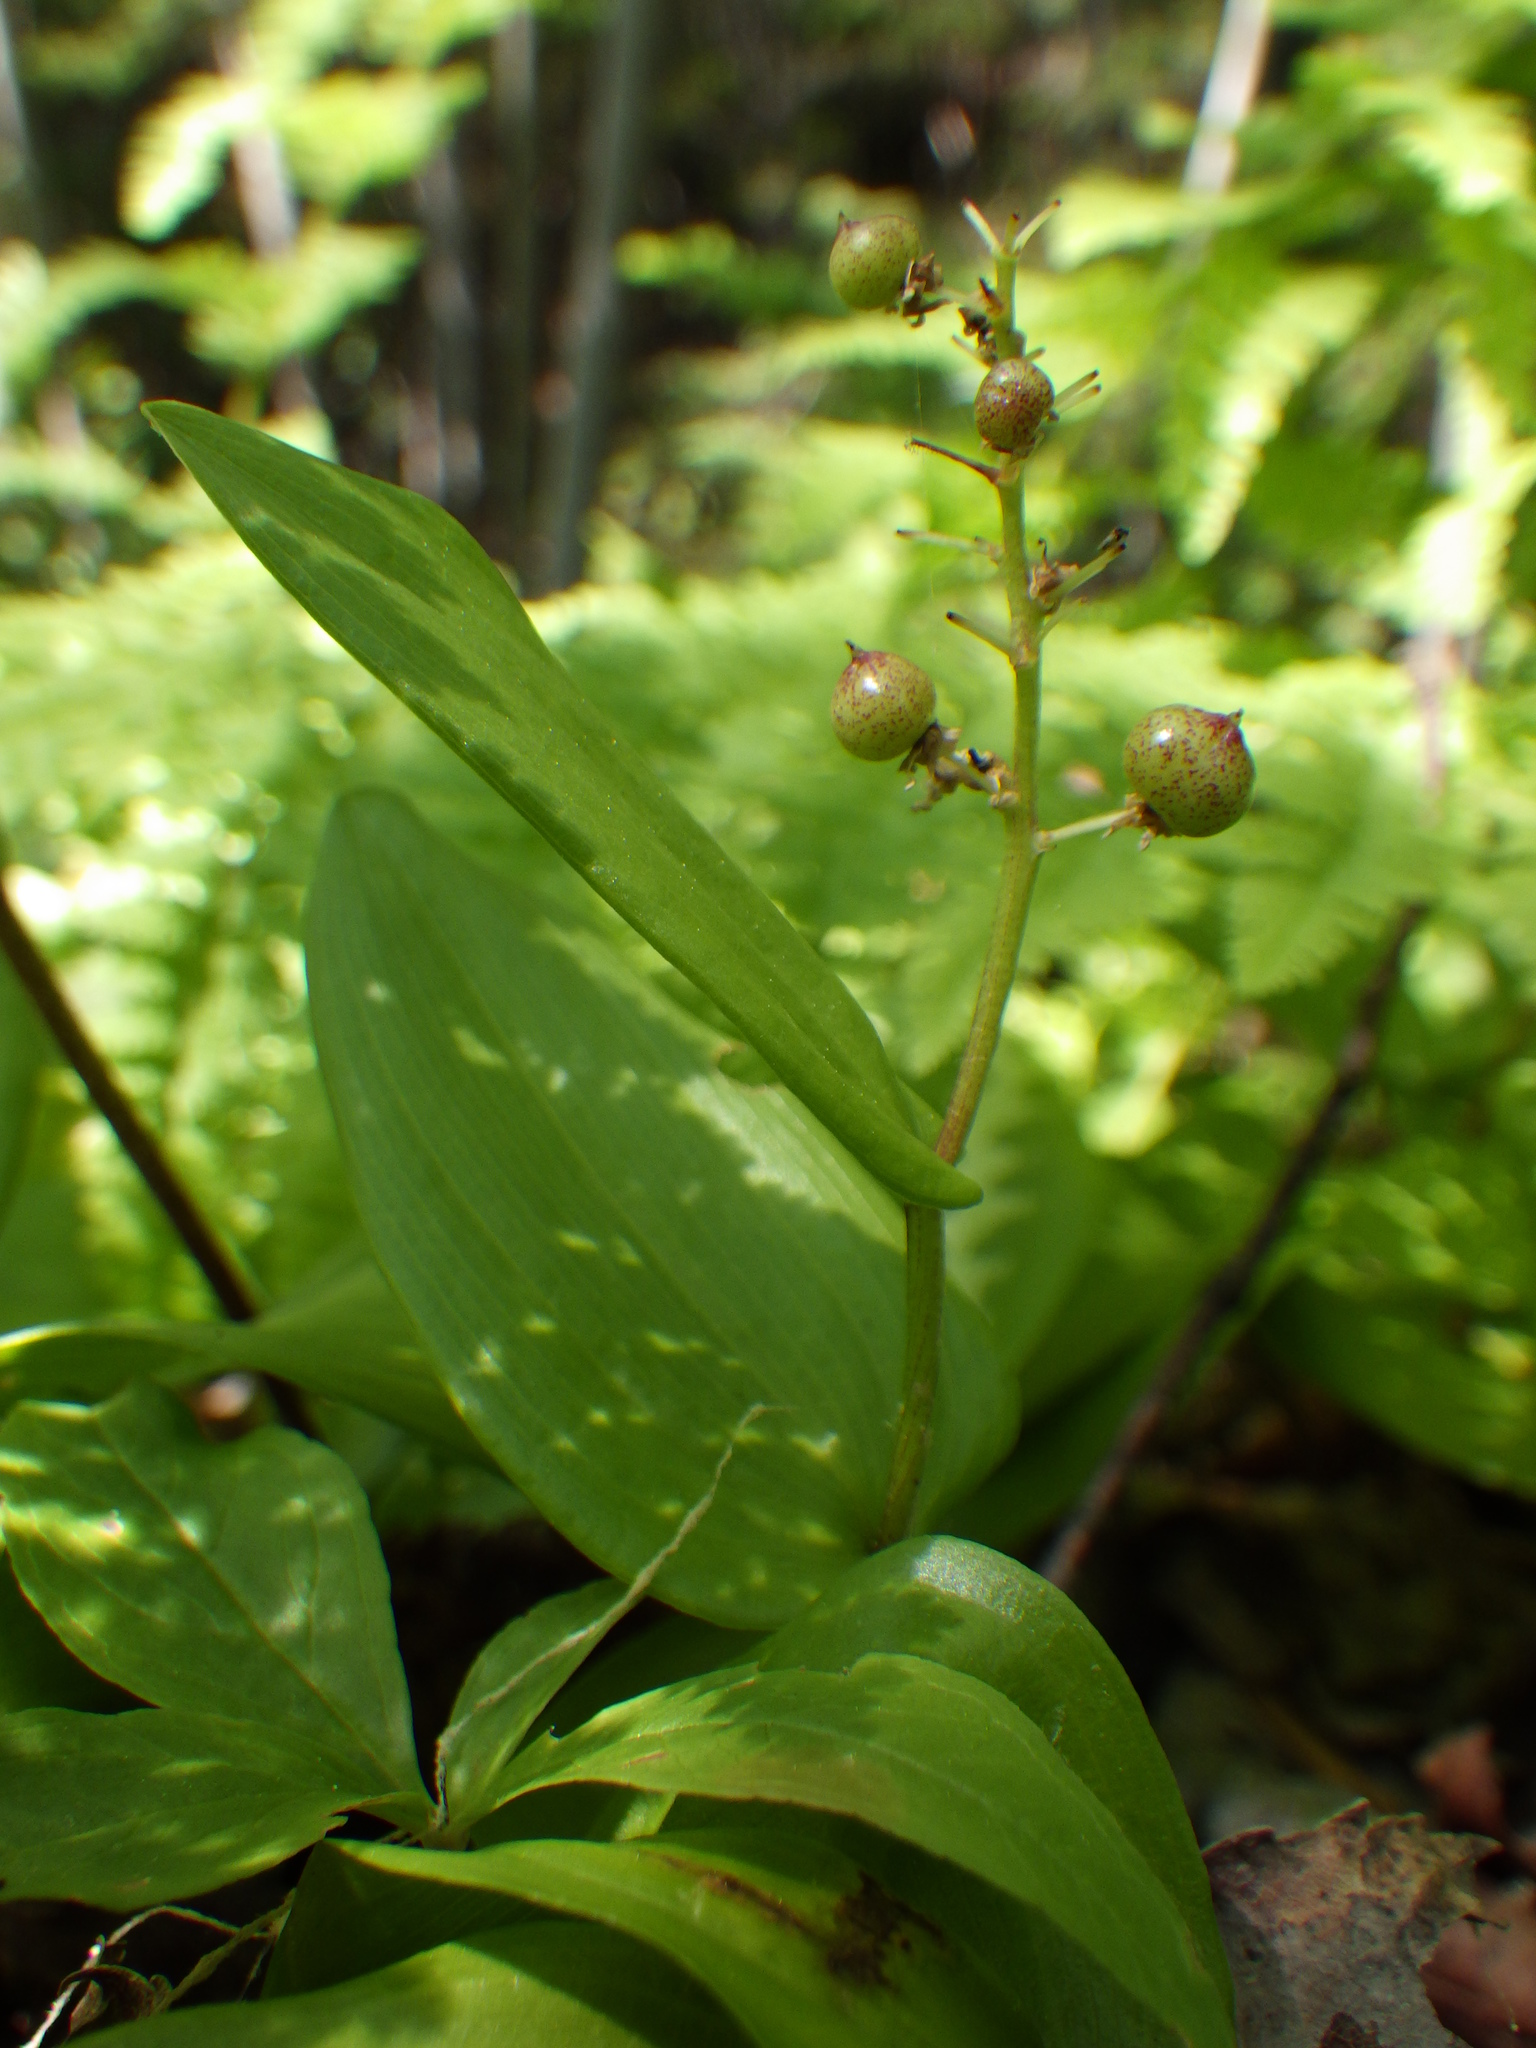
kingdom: Plantae
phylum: Tracheophyta
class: Liliopsida
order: Asparagales
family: Asparagaceae
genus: Maianthemum
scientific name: Maianthemum canadense
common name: False lily-of-the-valley
